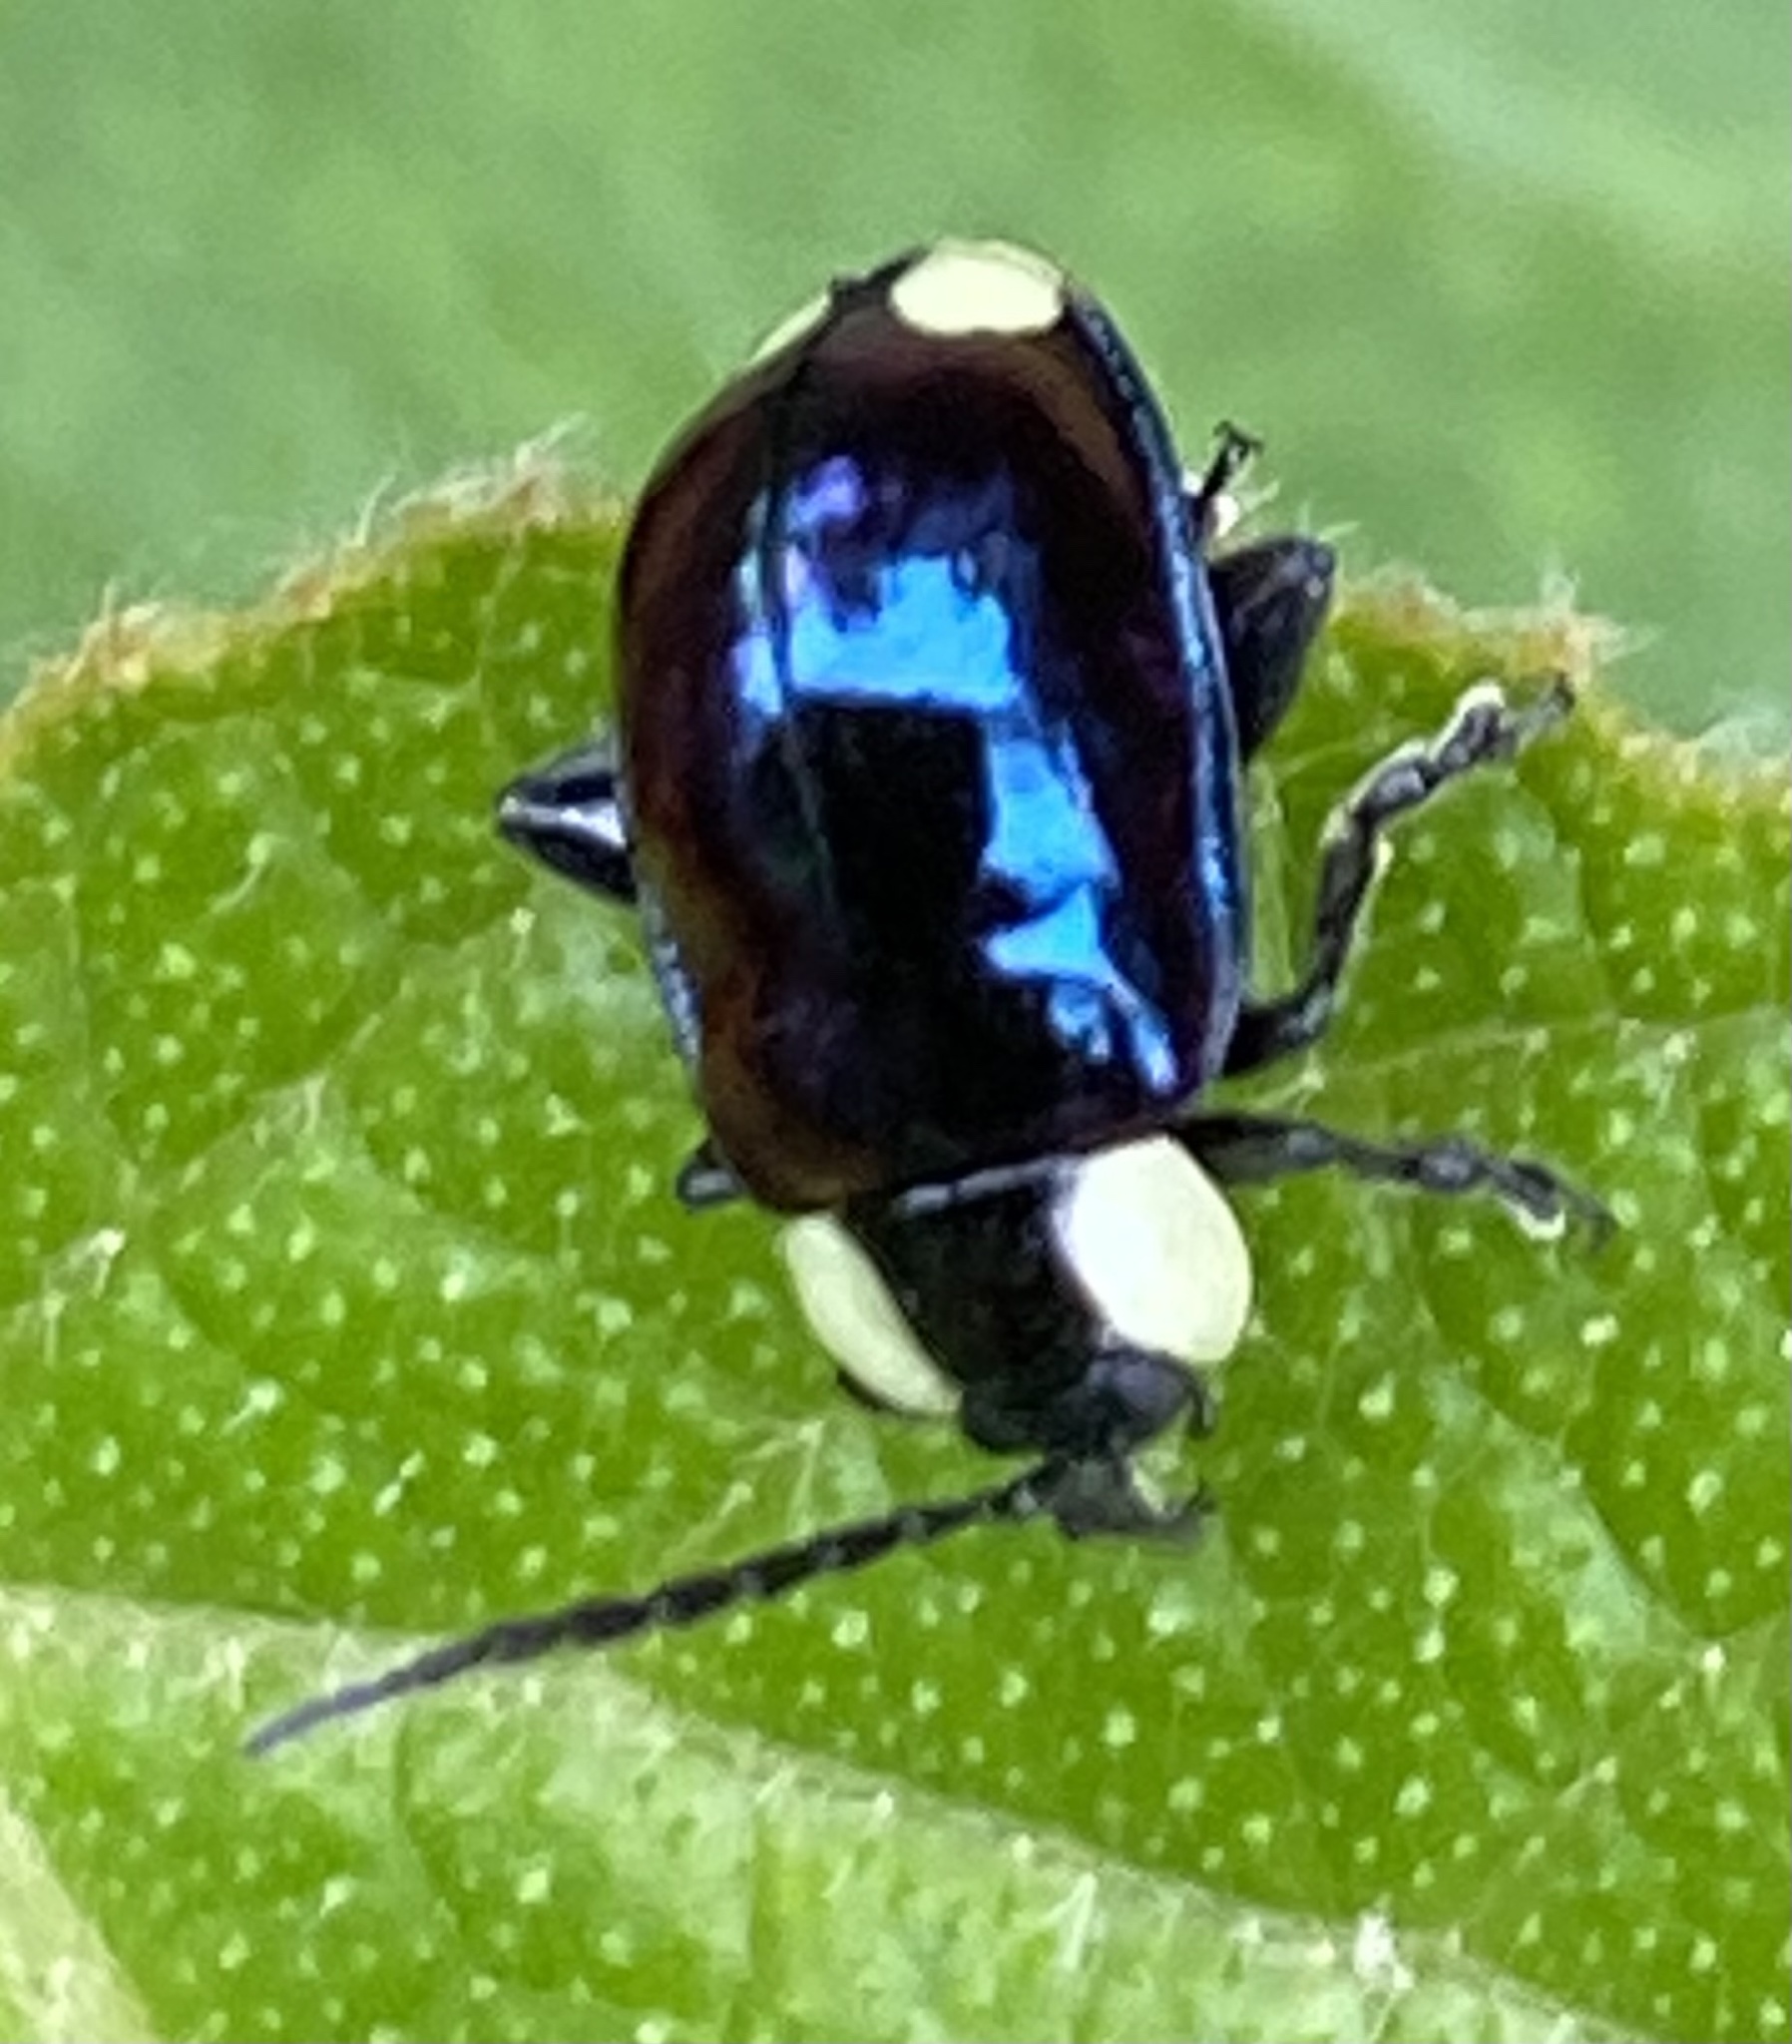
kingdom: Animalia
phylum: Arthropoda
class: Insecta
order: Coleoptera
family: Chrysomelidae
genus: Alagoasa
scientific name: Alagoasa
